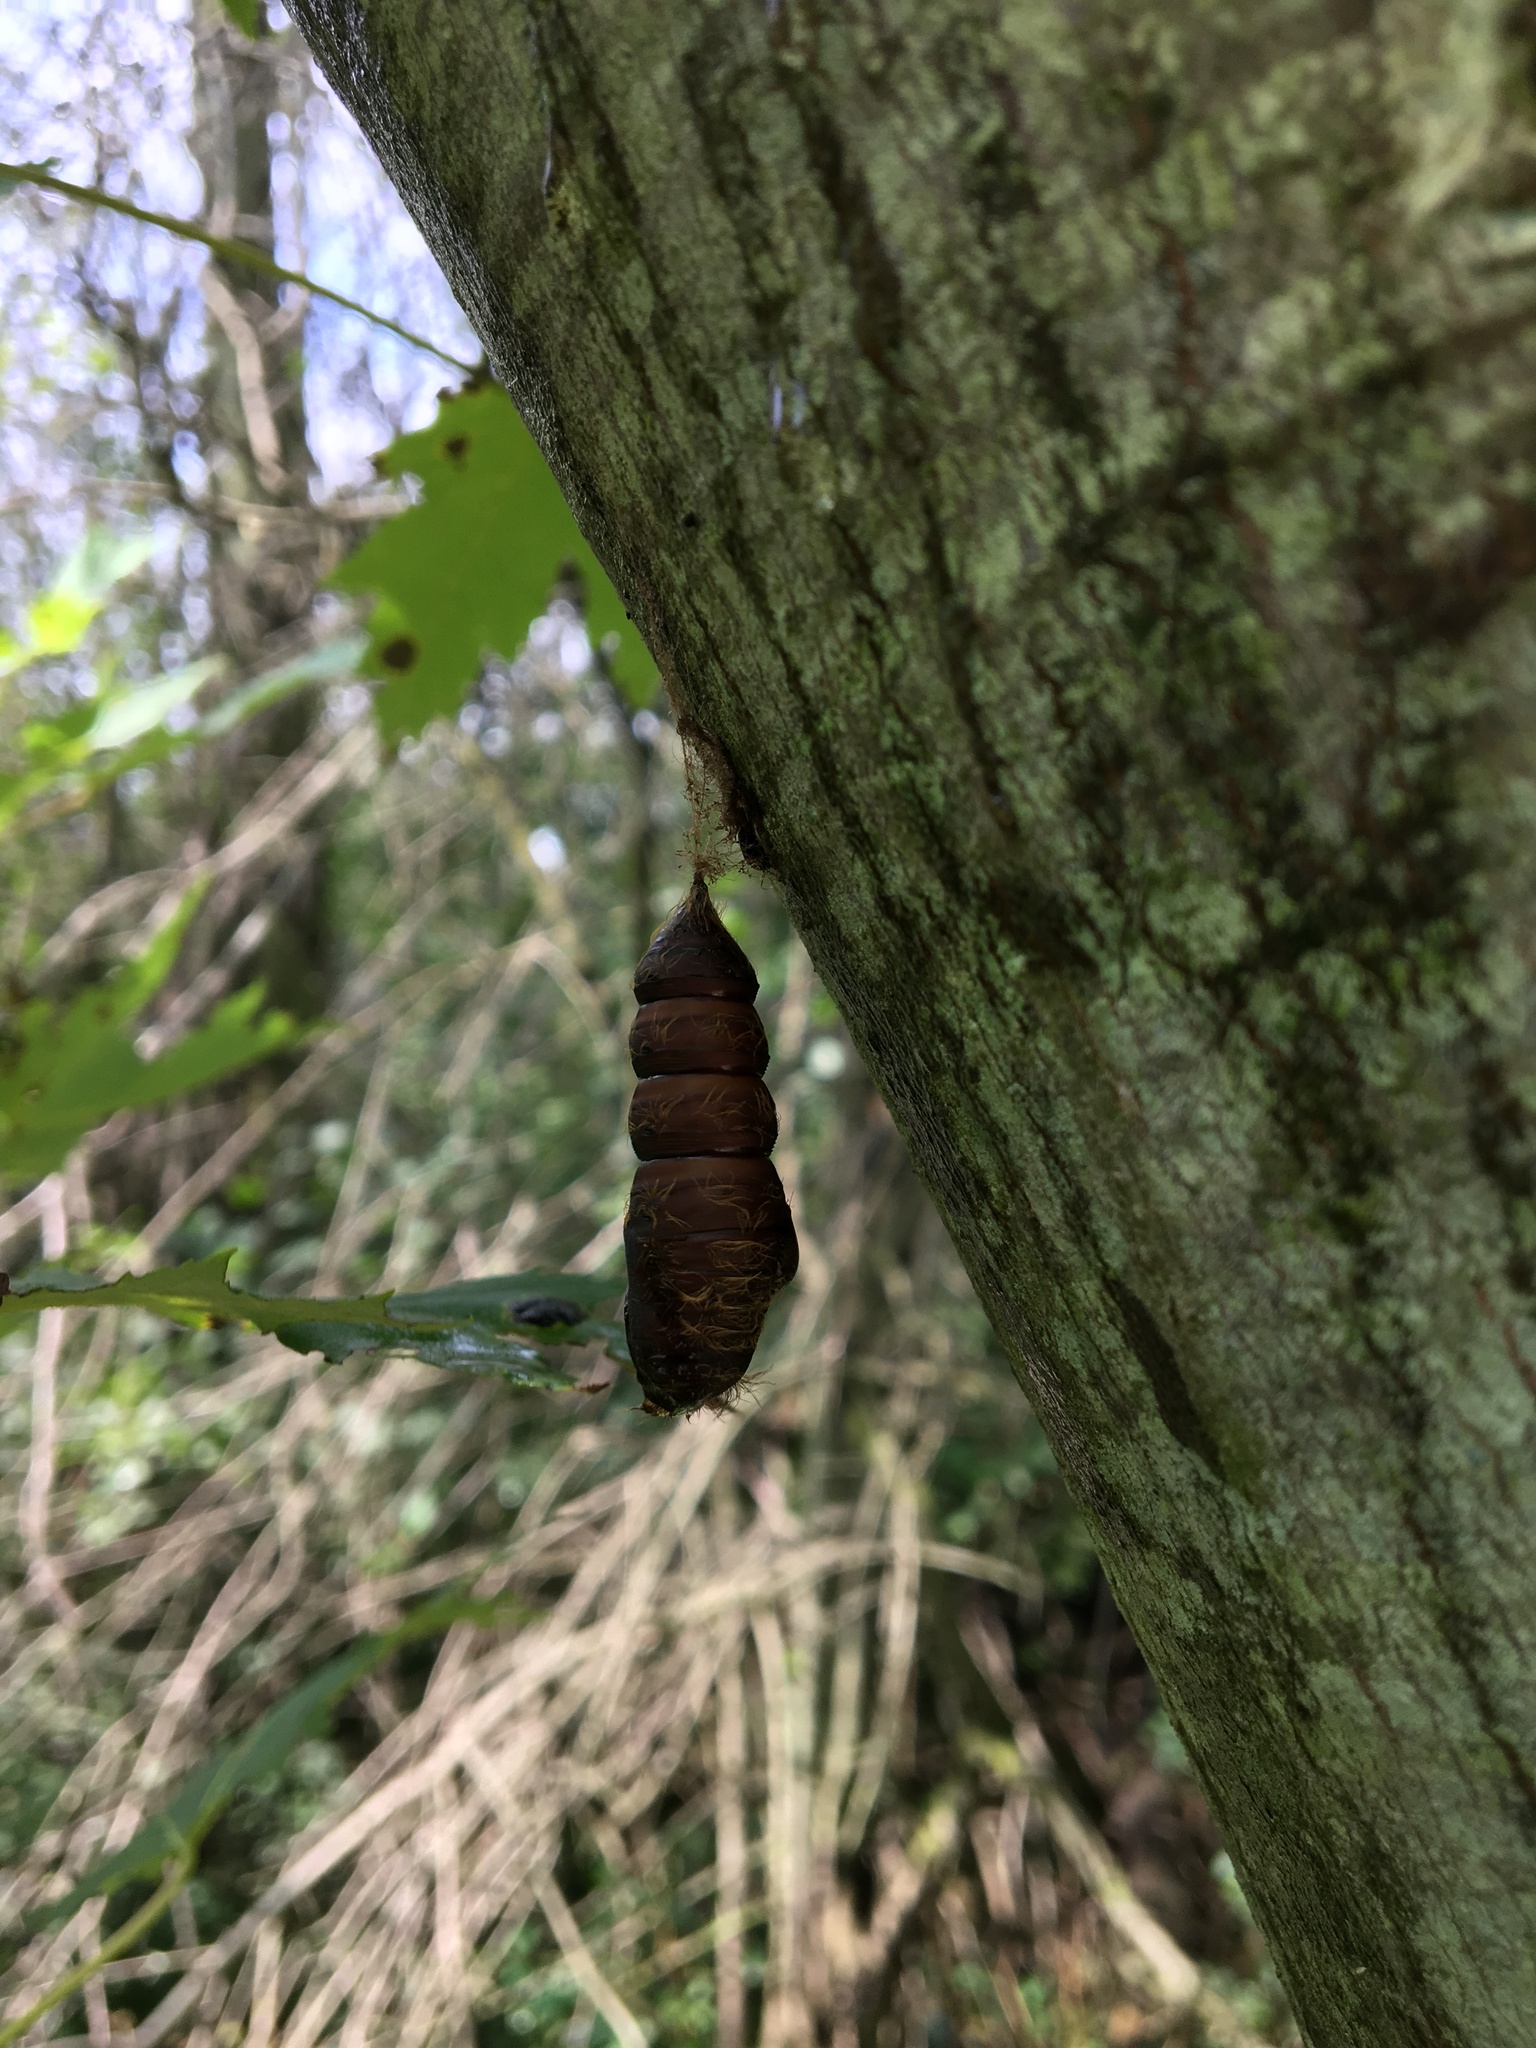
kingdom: Animalia
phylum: Arthropoda
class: Insecta
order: Lepidoptera
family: Erebidae
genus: Lymantria
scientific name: Lymantria dispar
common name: Gypsy moth
